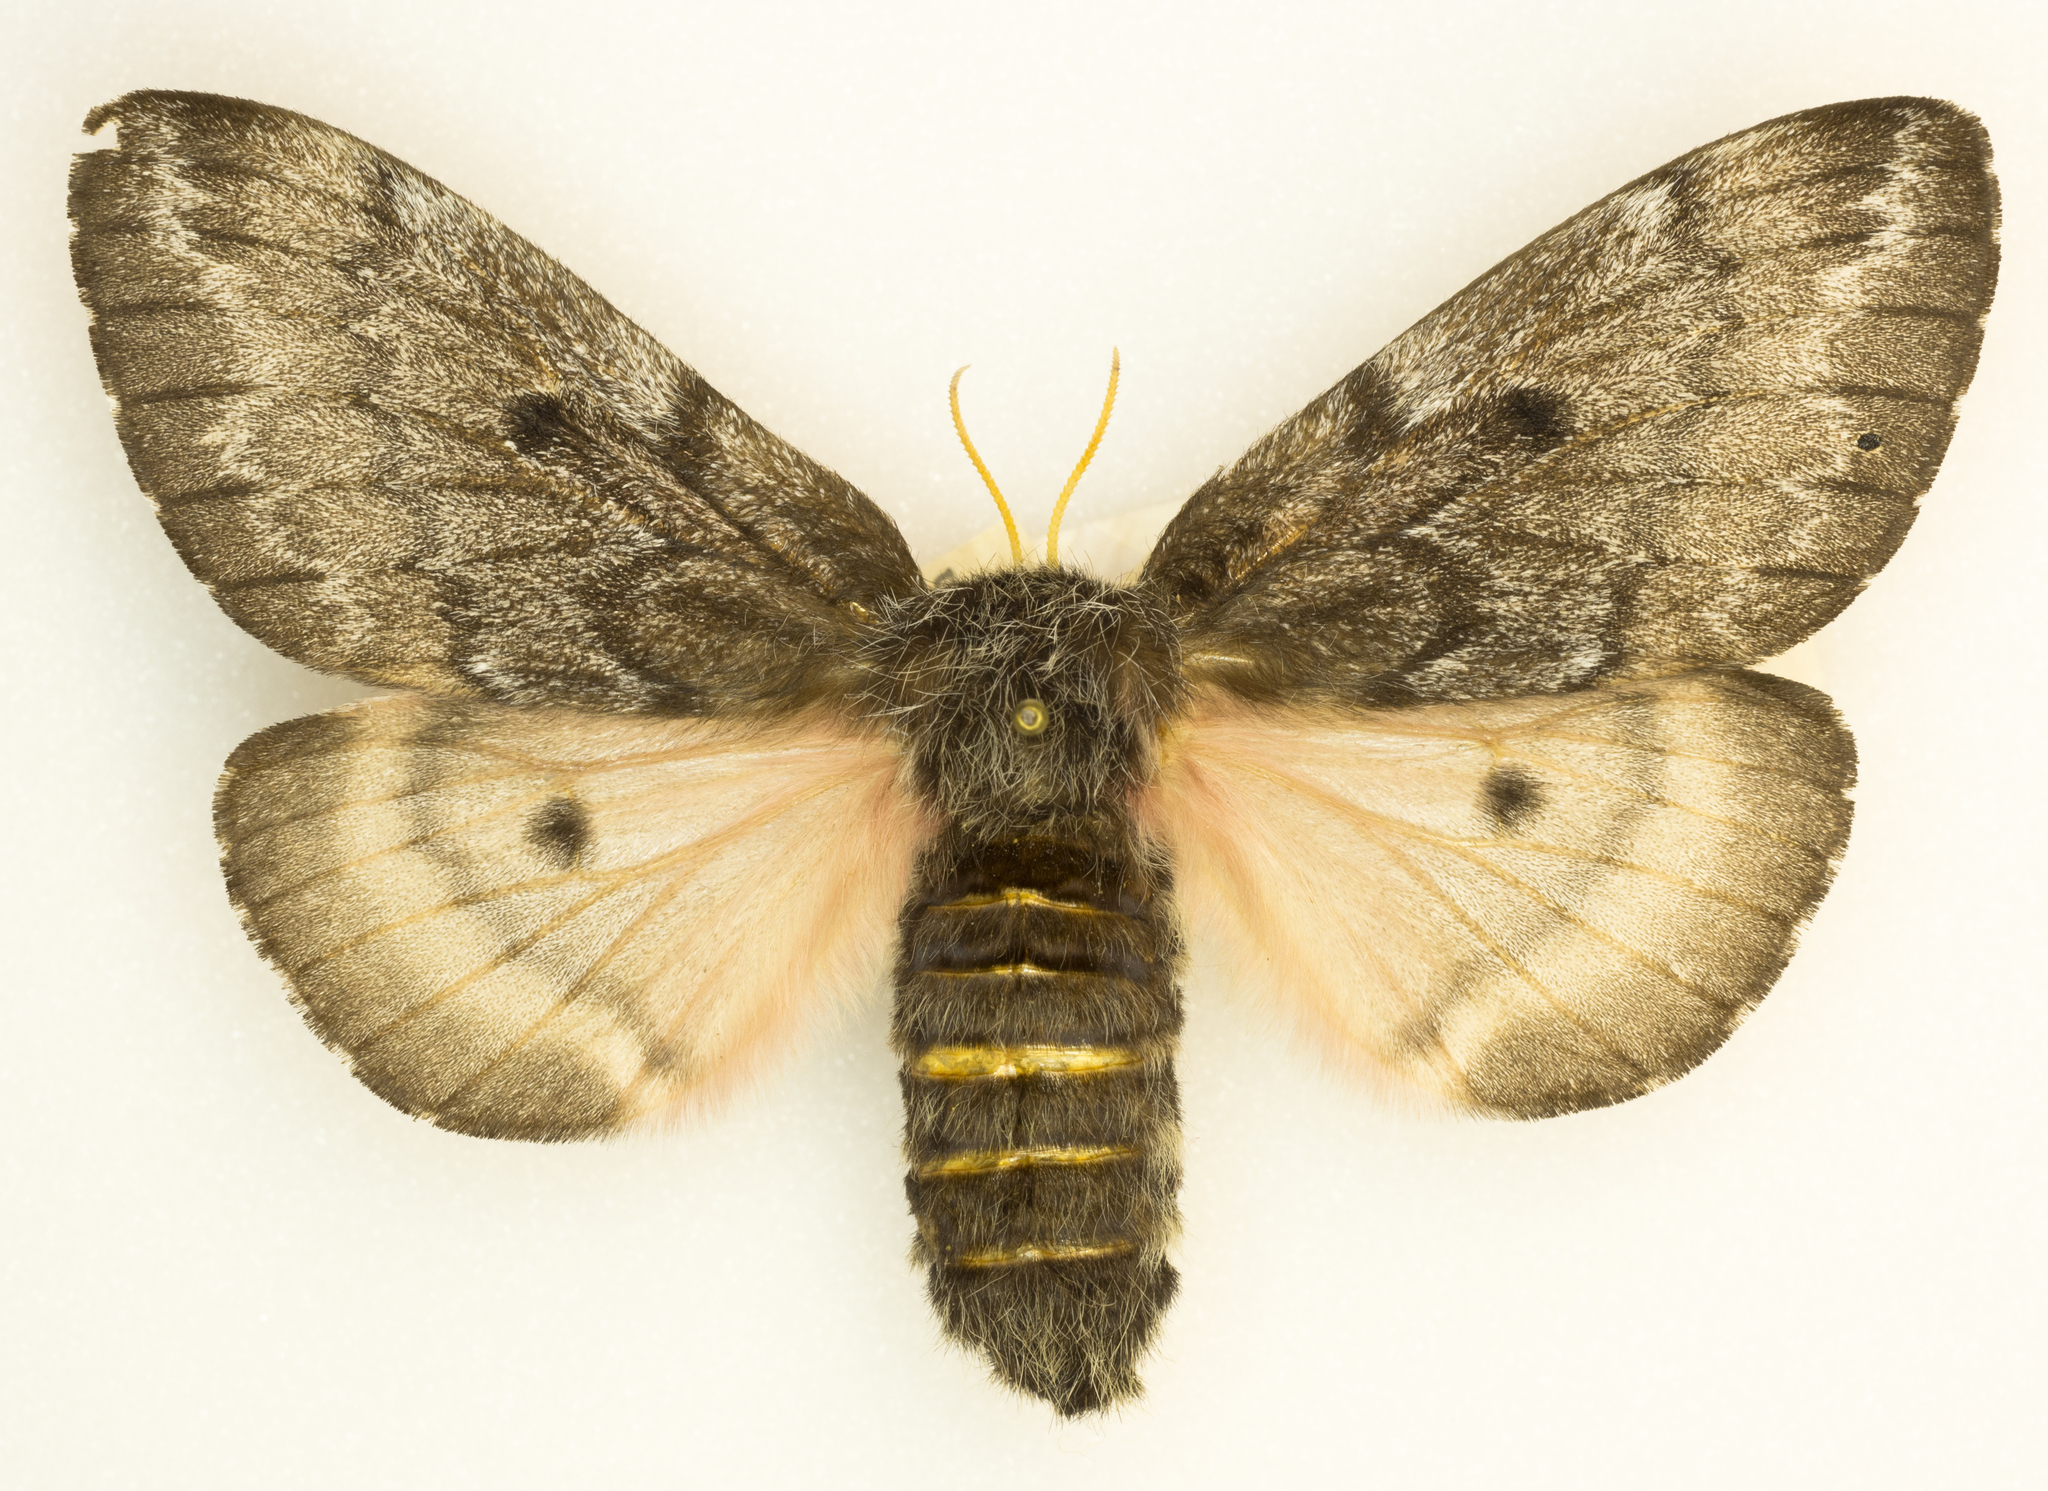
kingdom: Animalia
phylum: Arthropoda
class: Insecta
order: Lepidoptera
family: Saturniidae
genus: Coloradia
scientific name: Coloradia pandora
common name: Pandora pinemoth
